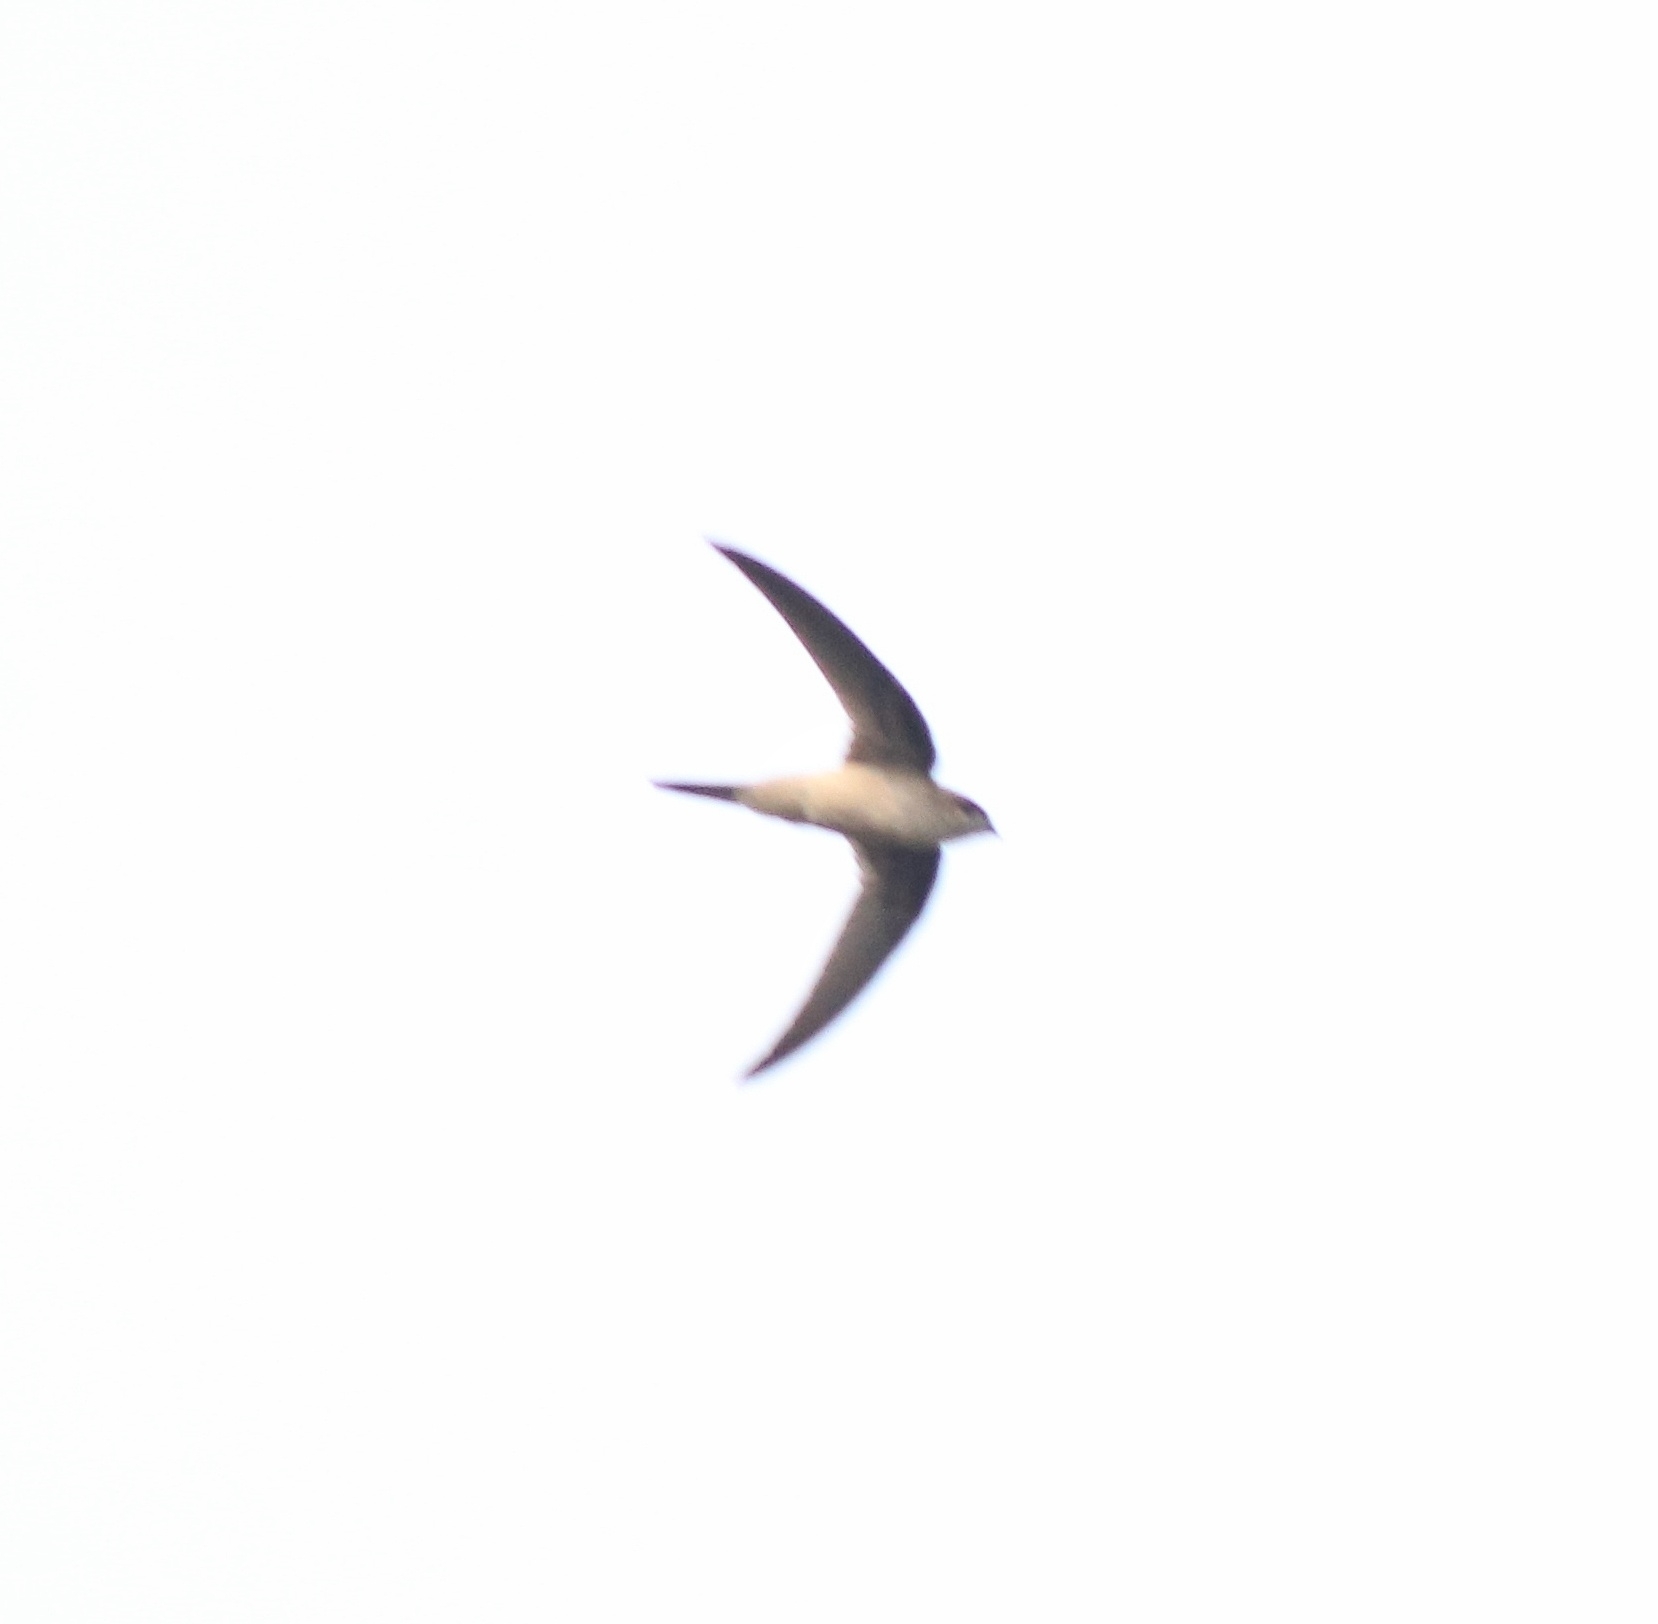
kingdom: Animalia
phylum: Chordata
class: Aves
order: Apodiformes
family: Apodidae
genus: Cypsiurus
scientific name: Cypsiurus balasiensis
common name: Asian palm swift
